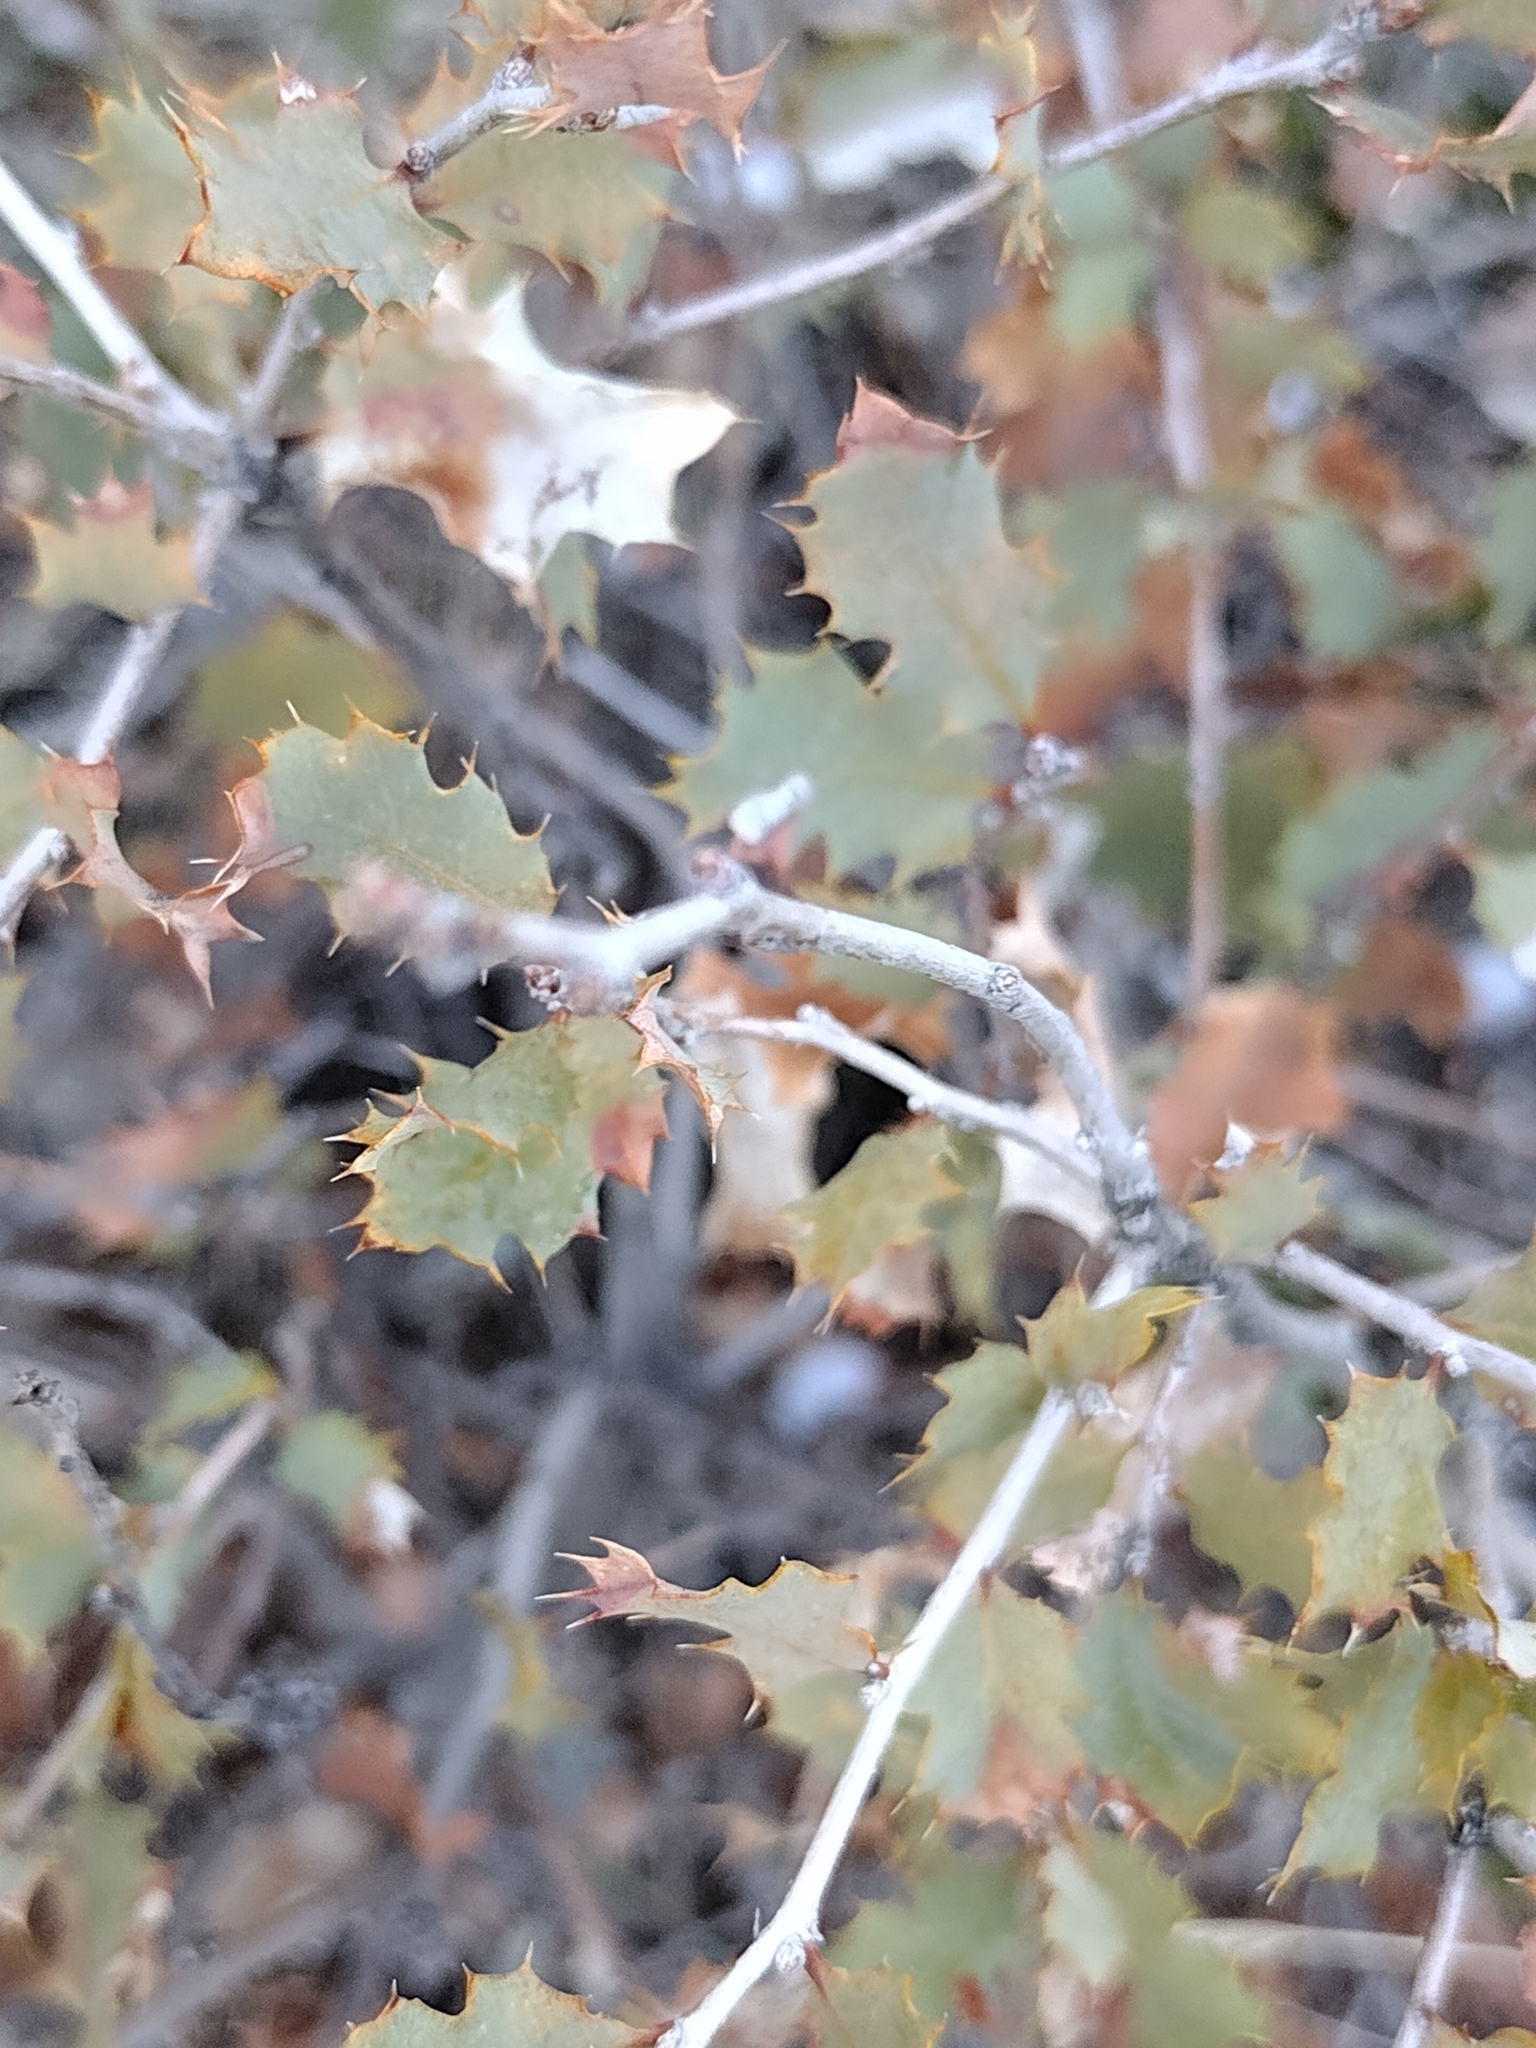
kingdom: Plantae
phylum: Tracheophyta
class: Magnoliopsida
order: Fagales
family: Fagaceae
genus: Quercus
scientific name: Quercus john-tuckeri
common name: Tucker's oak
